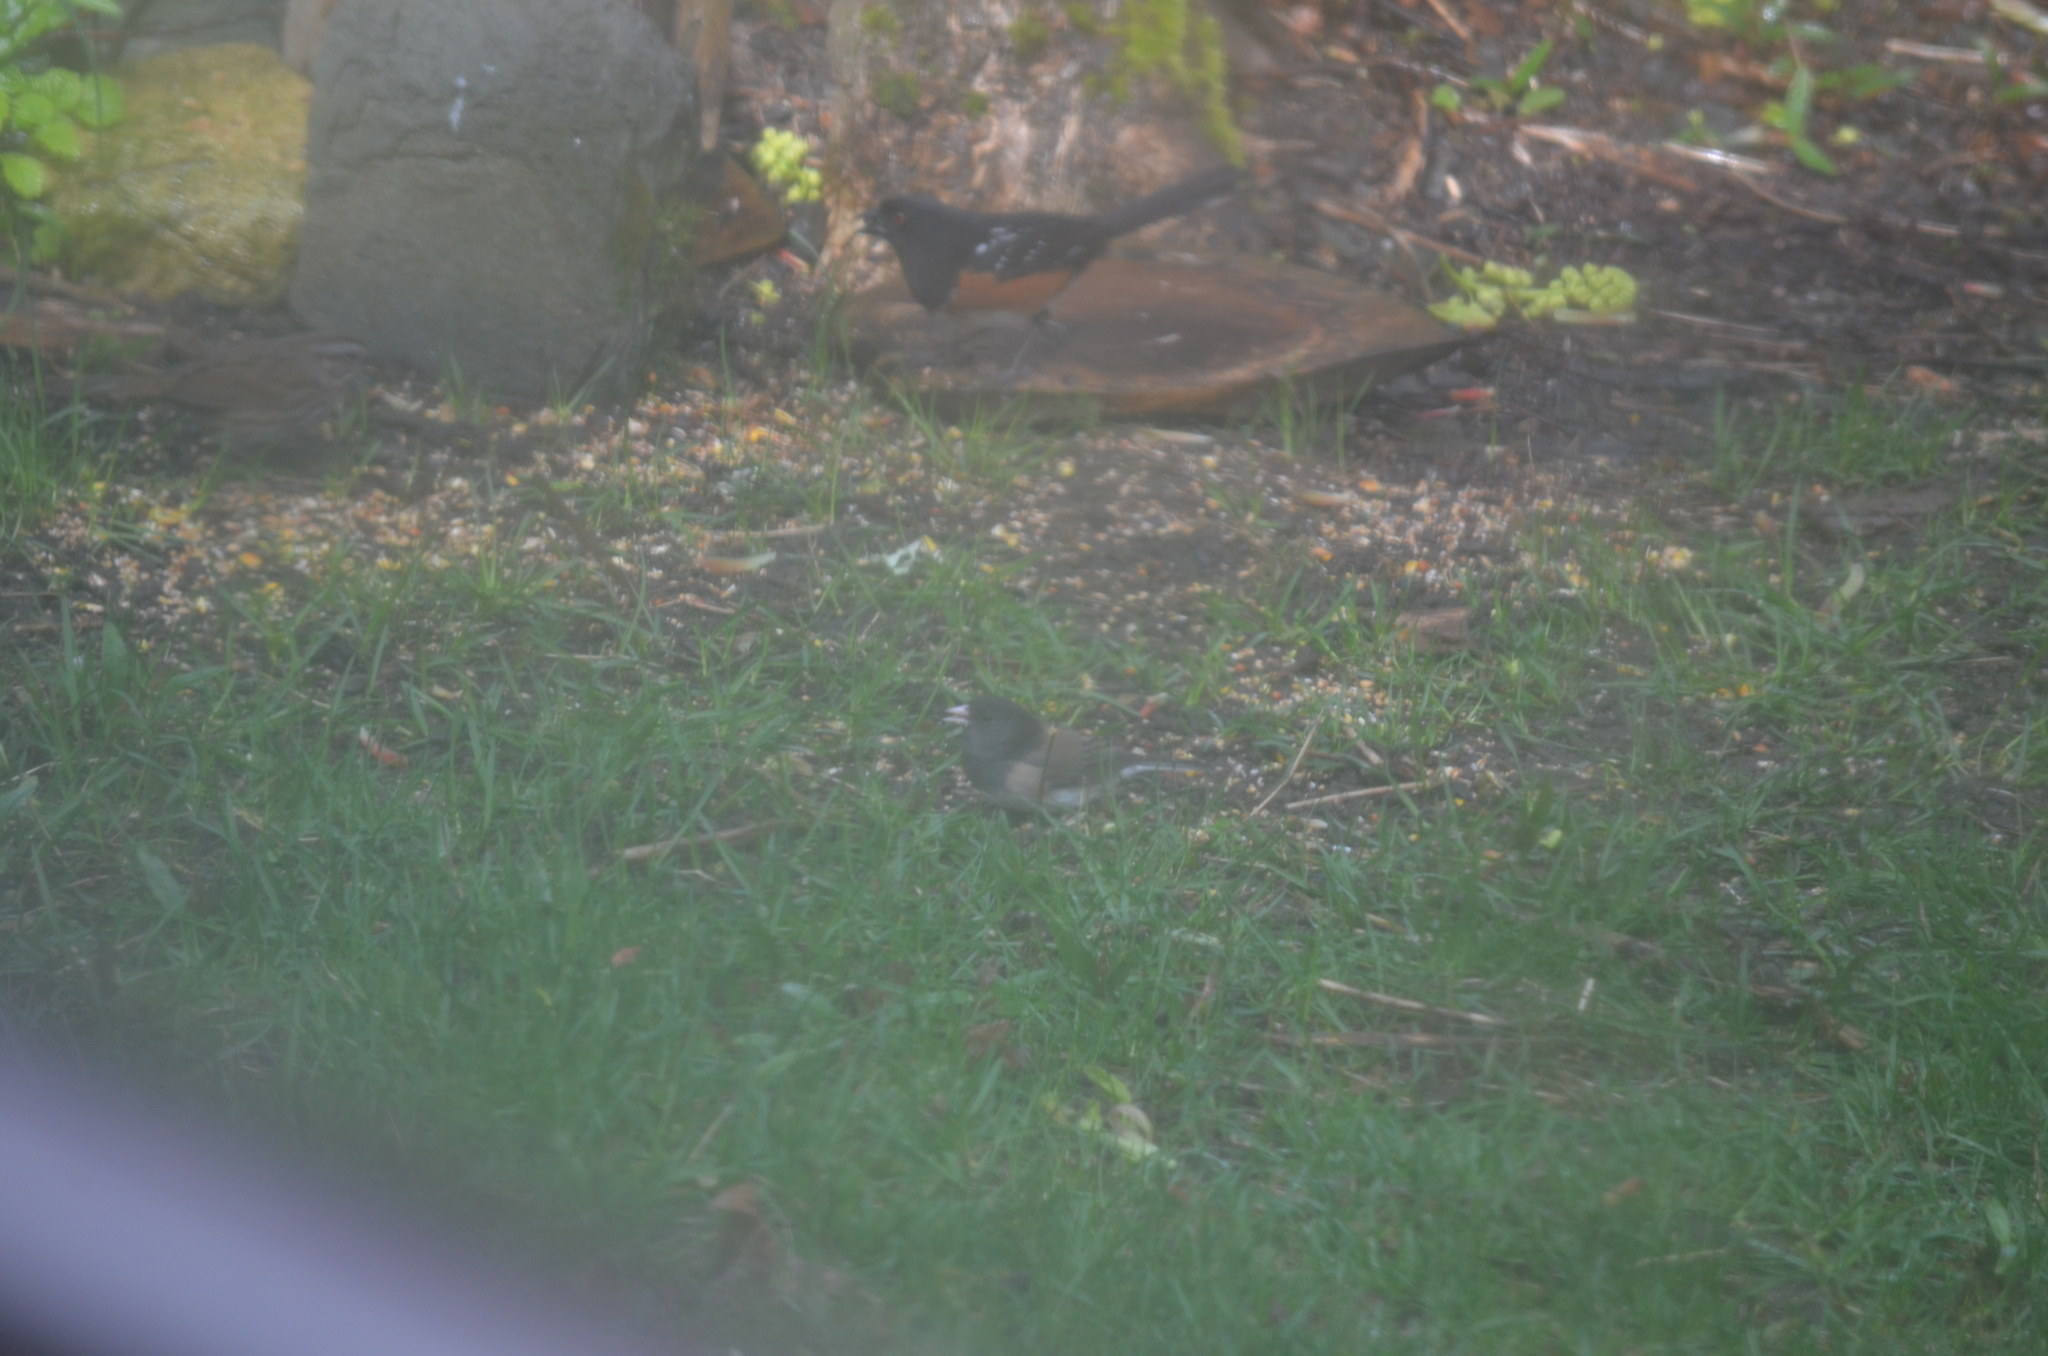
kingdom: Animalia
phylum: Chordata
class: Aves
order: Passeriformes
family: Passerellidae
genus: Junco
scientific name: Junco hyemalis
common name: Dark-eyed junco
